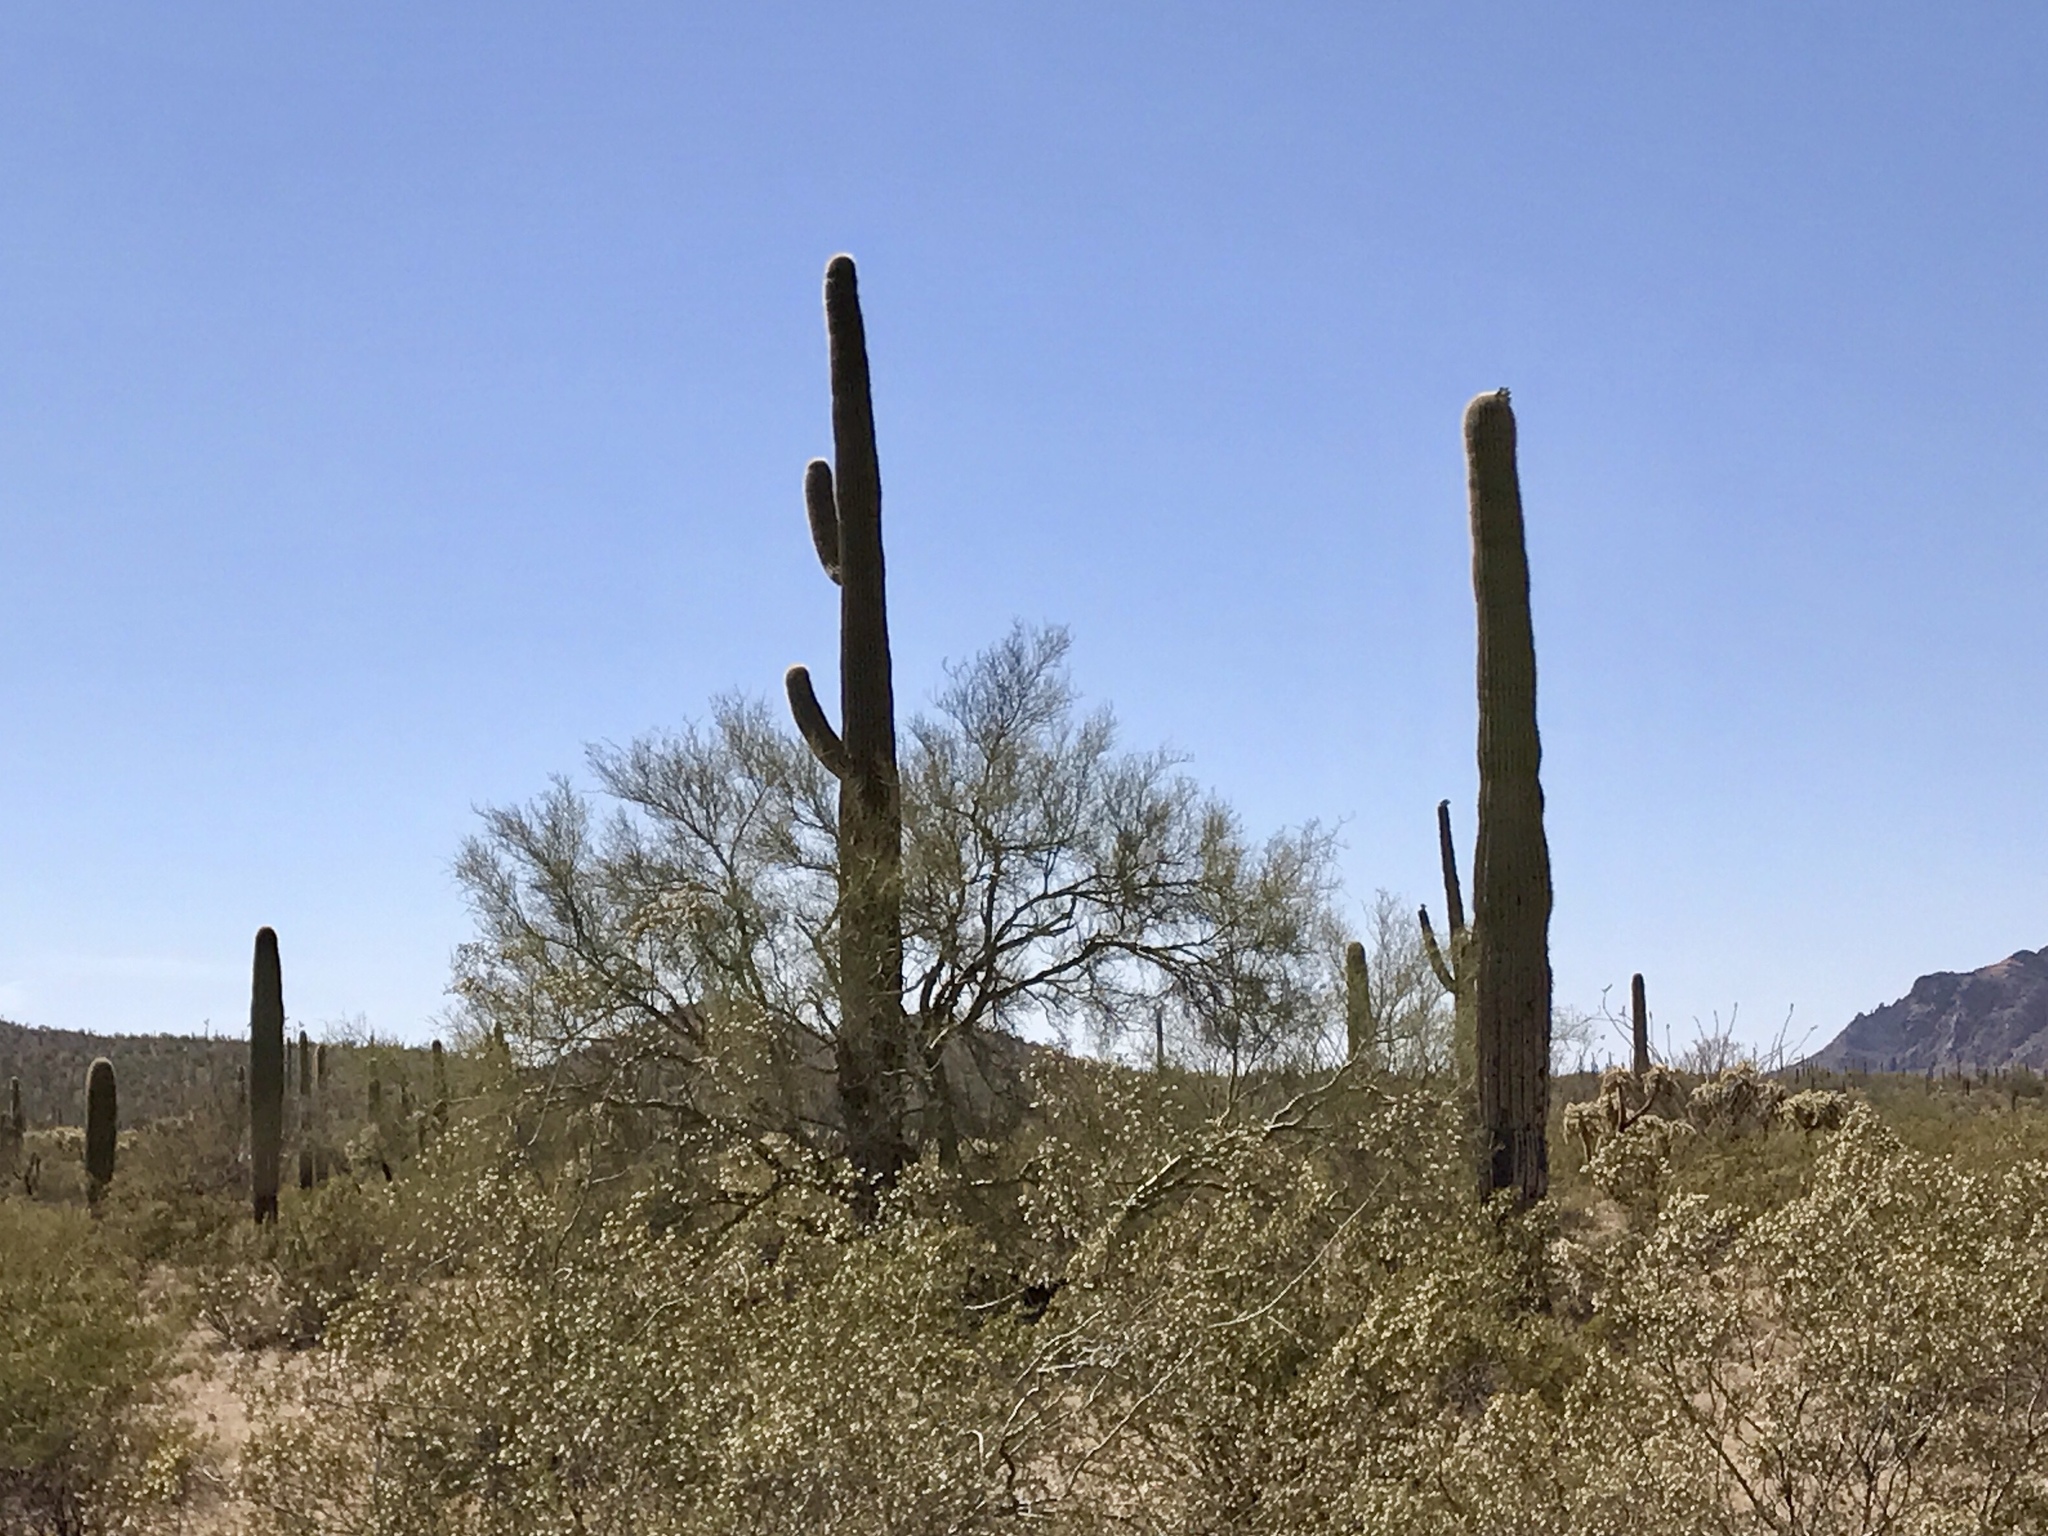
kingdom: Plantae
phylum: Tracheophyta
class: Magnoliopsida
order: Caryophyllales
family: Cactaceae
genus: Carnegiea
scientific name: Carnegiea gigantea
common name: Saguaro
